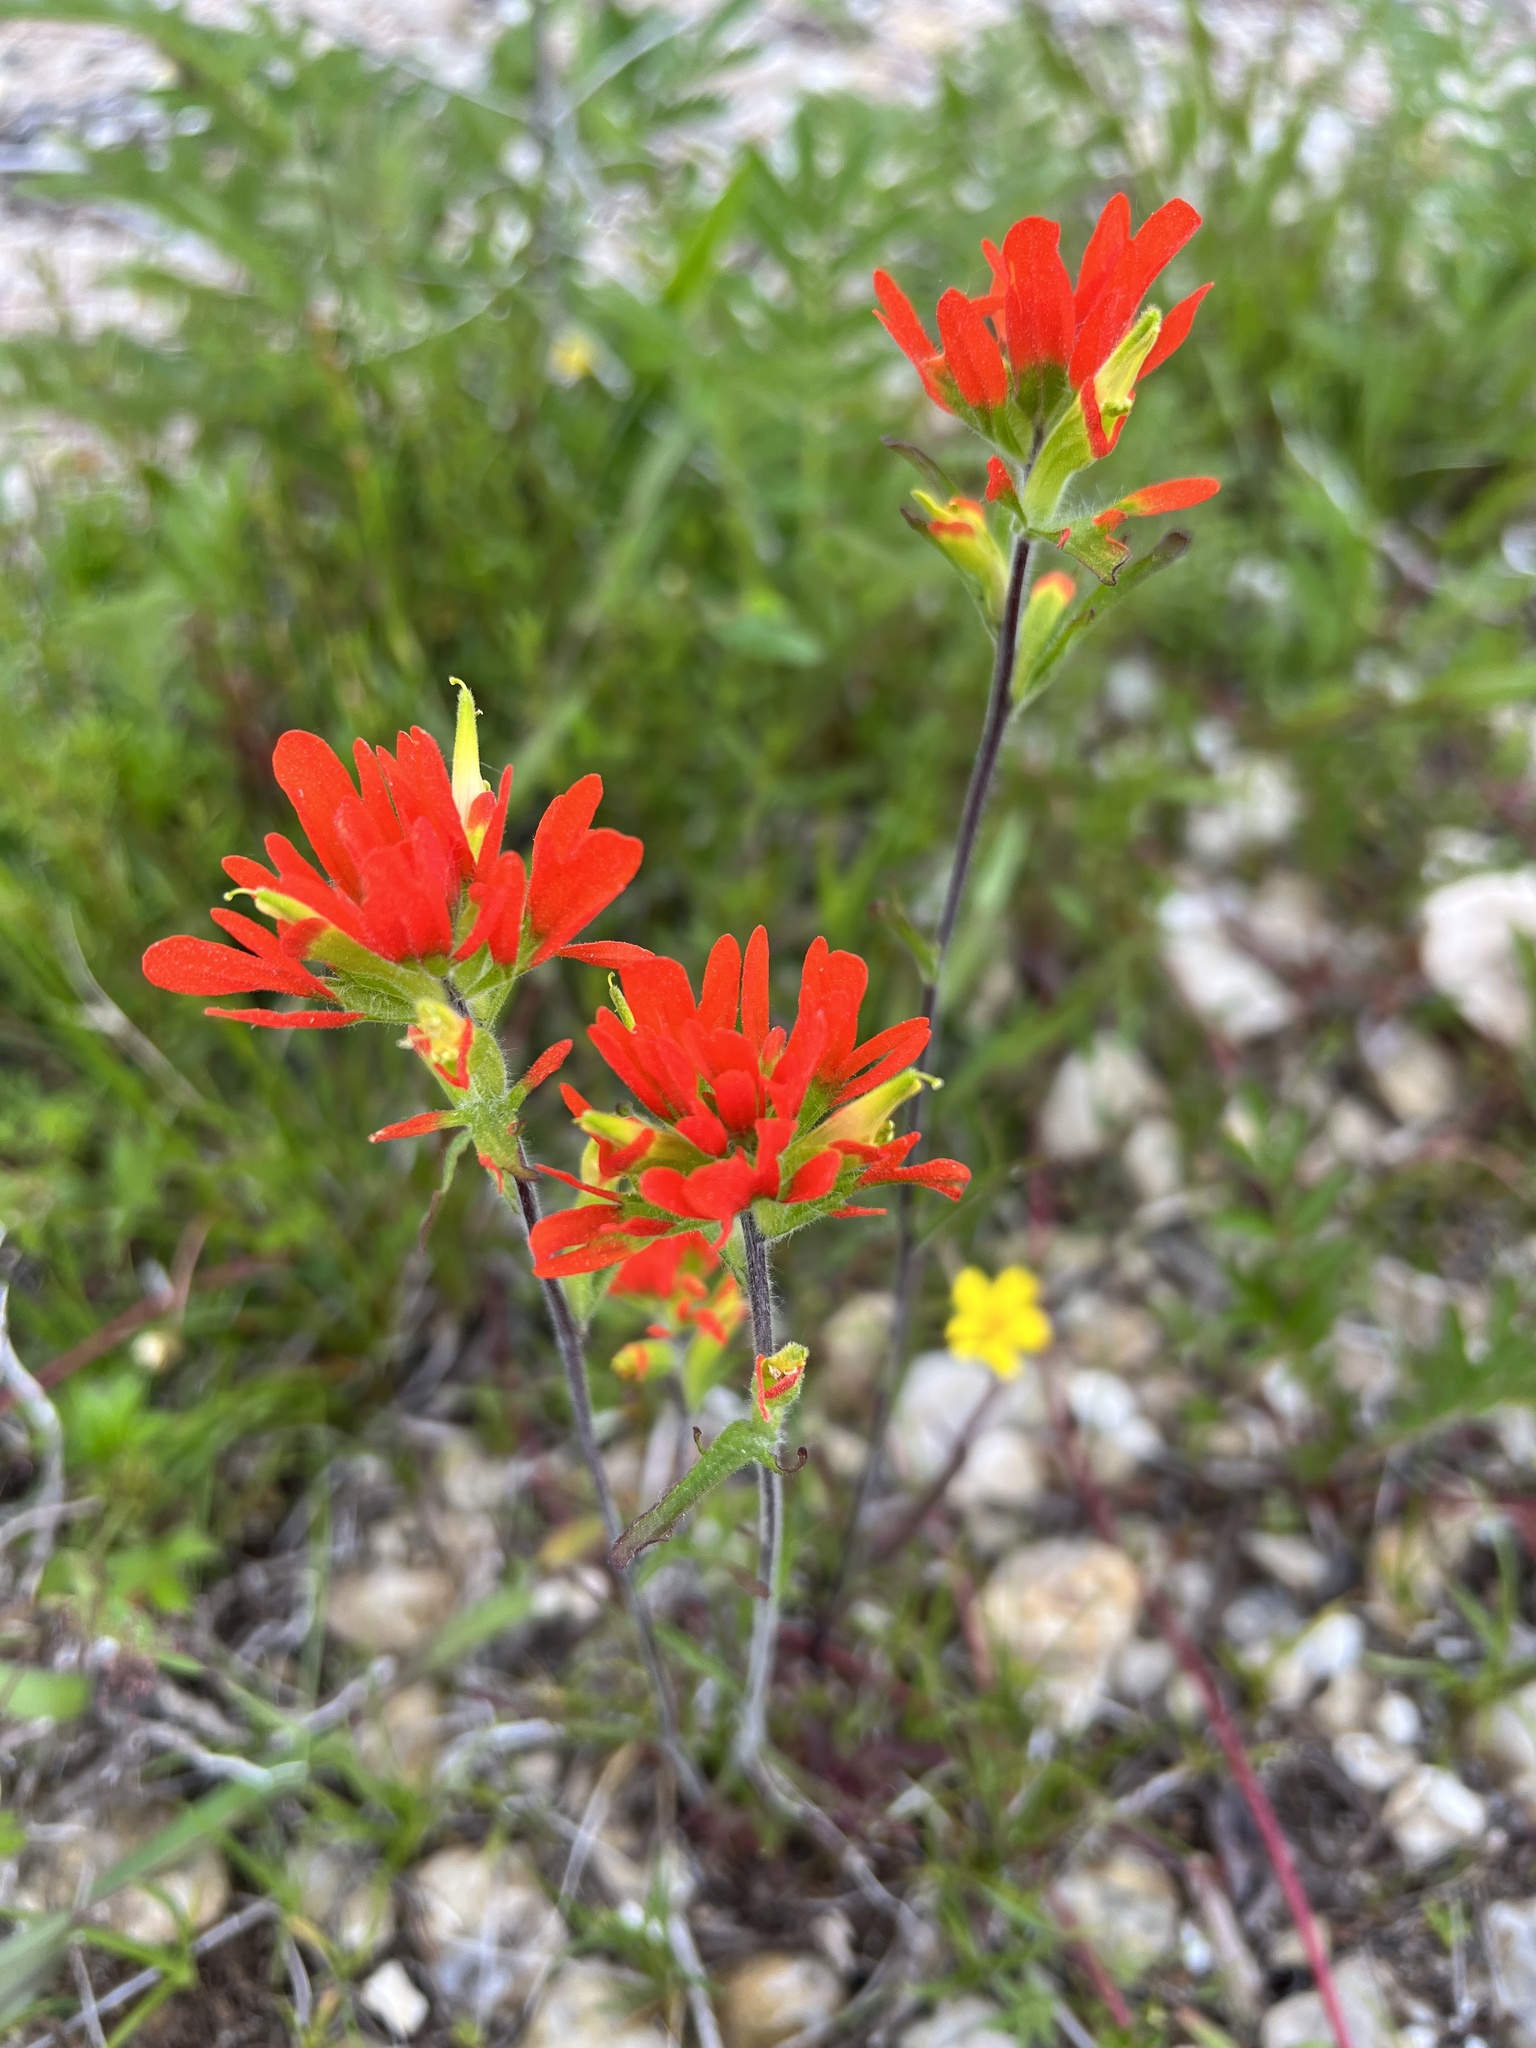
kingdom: Plantae
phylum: Tracheophyta
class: Magnoliopsida
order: Lamiales
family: Orobanchaceae
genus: Castilleja
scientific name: Castilleja coccinea
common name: Scarlet paintbrush
